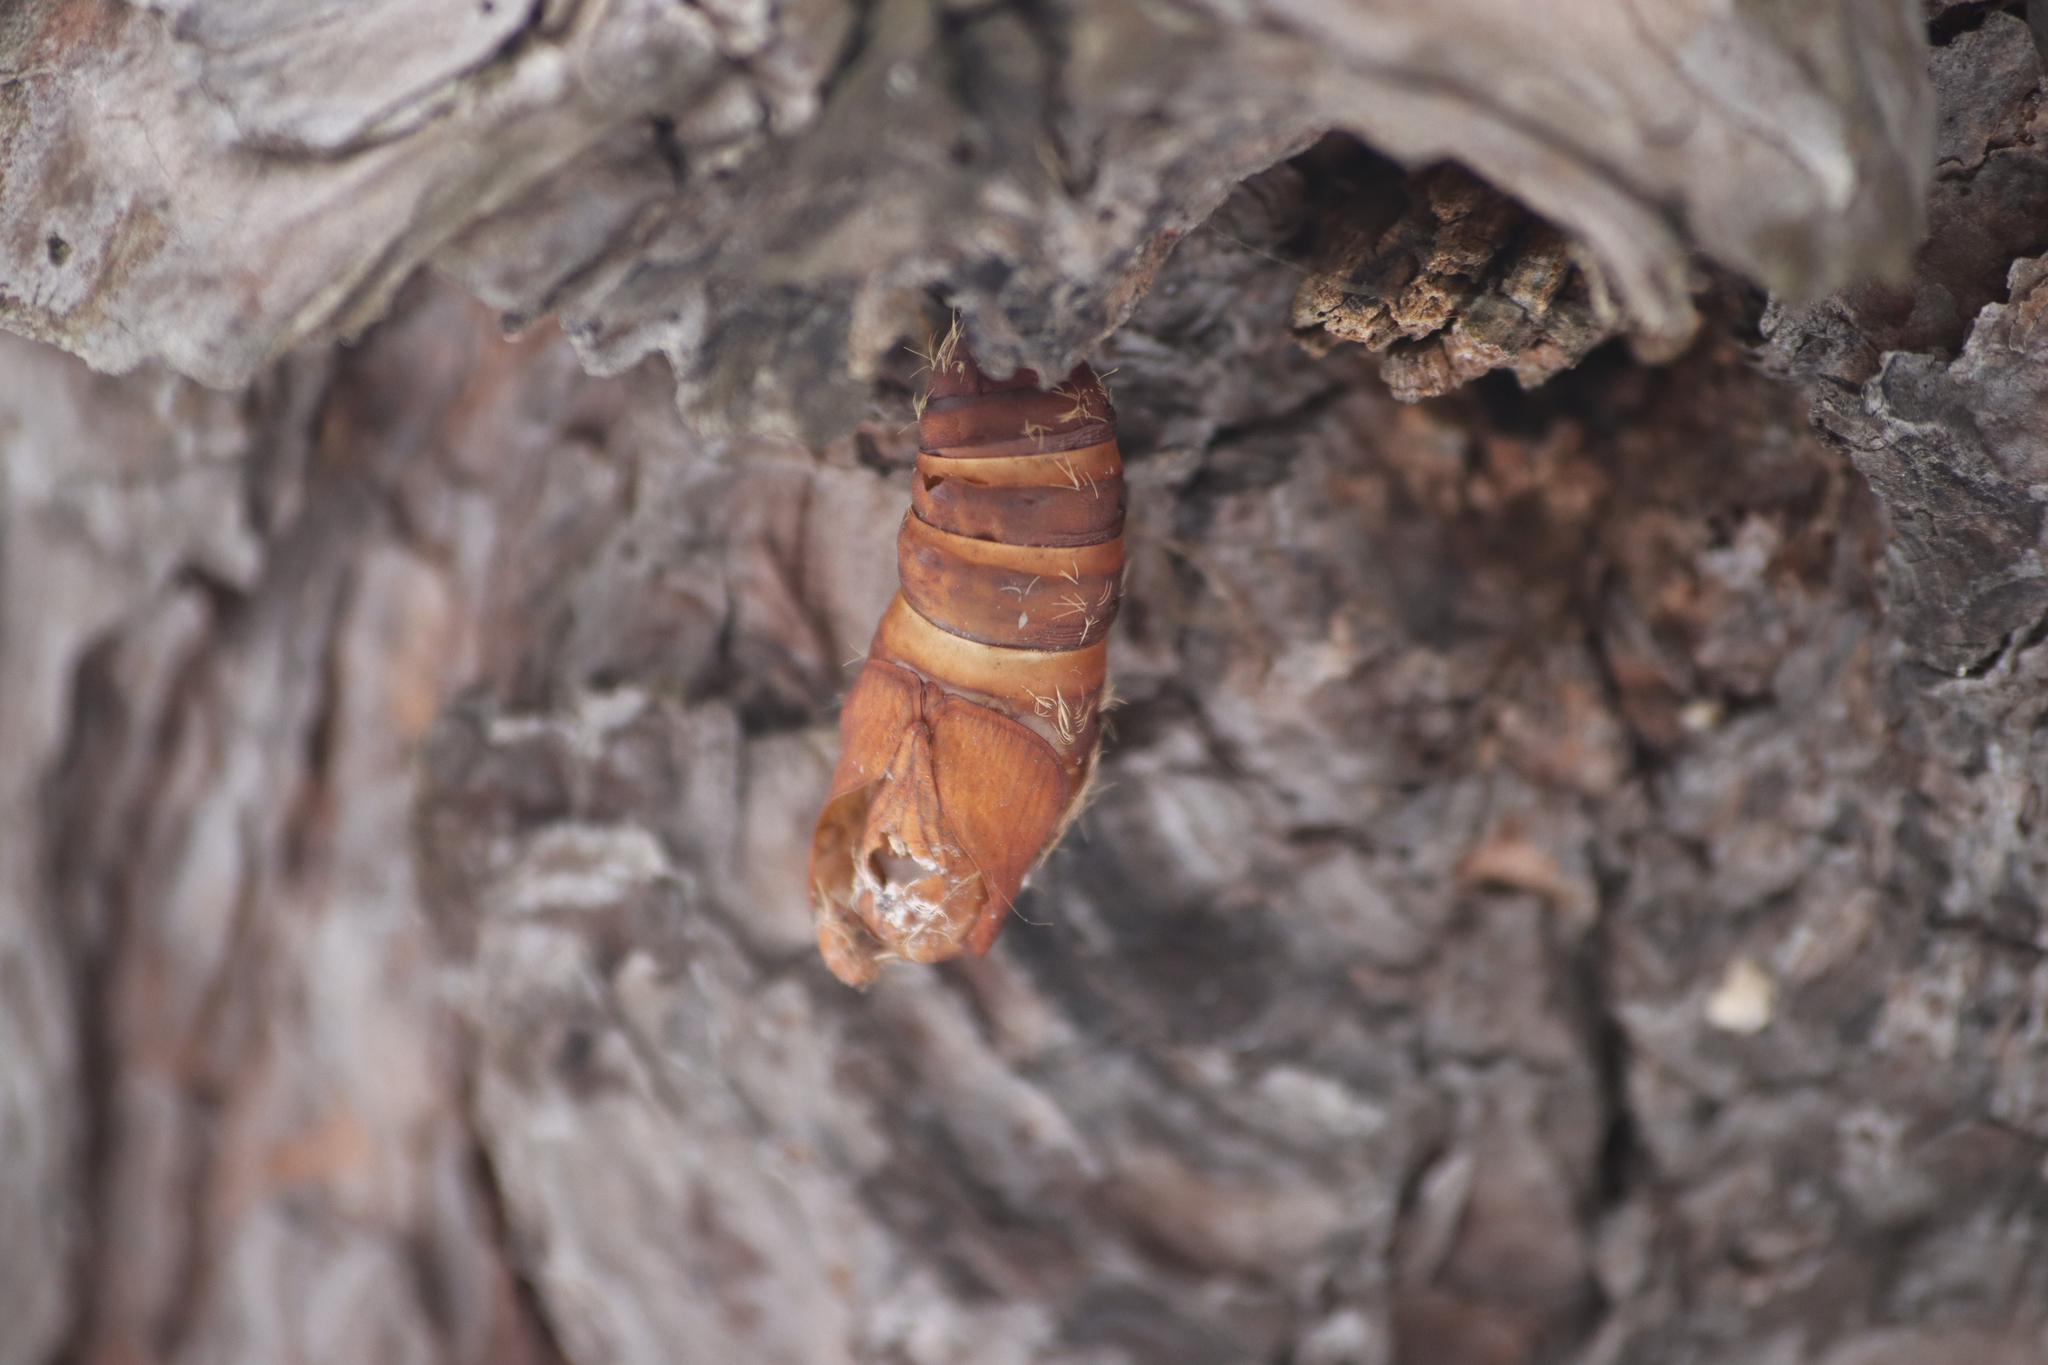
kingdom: Animalia
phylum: Arthropoda
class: Insecta
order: Lepidoptera
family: Erebidae
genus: Lymantria
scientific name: Lymantria dispar
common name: Gypsy moth
